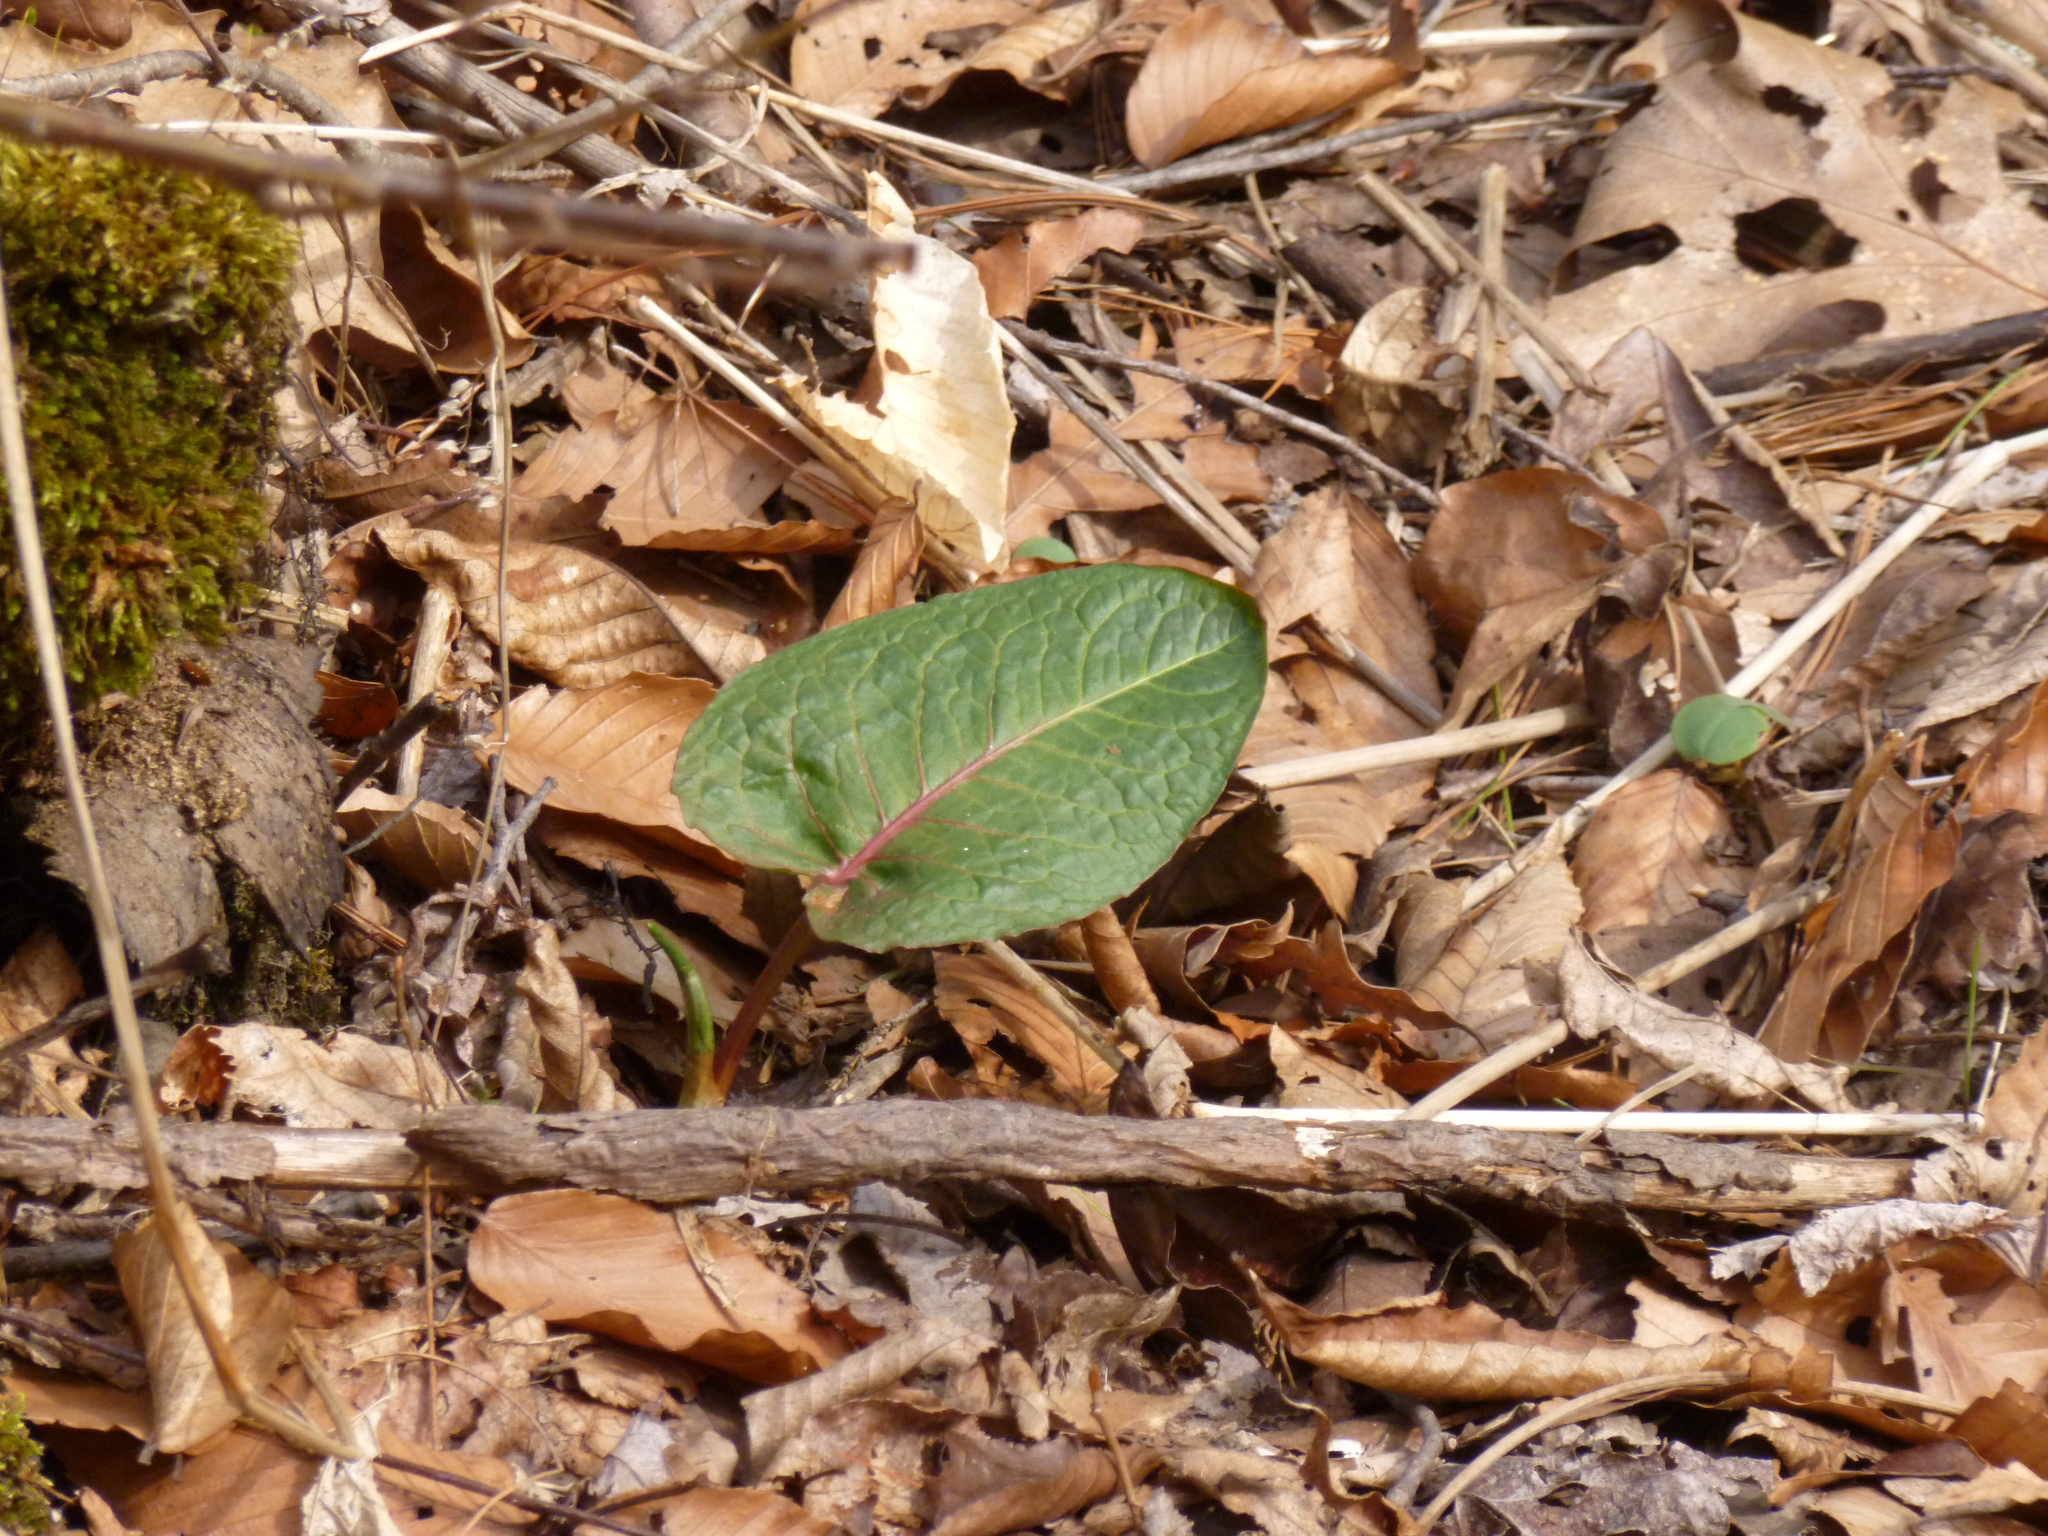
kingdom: Plantae
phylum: Tracheophyta
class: Magnoliopsida
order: Caryophyllales
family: Polygonaceae
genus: Rumex
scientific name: Rumex obtusifolius
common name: Bitter dock
